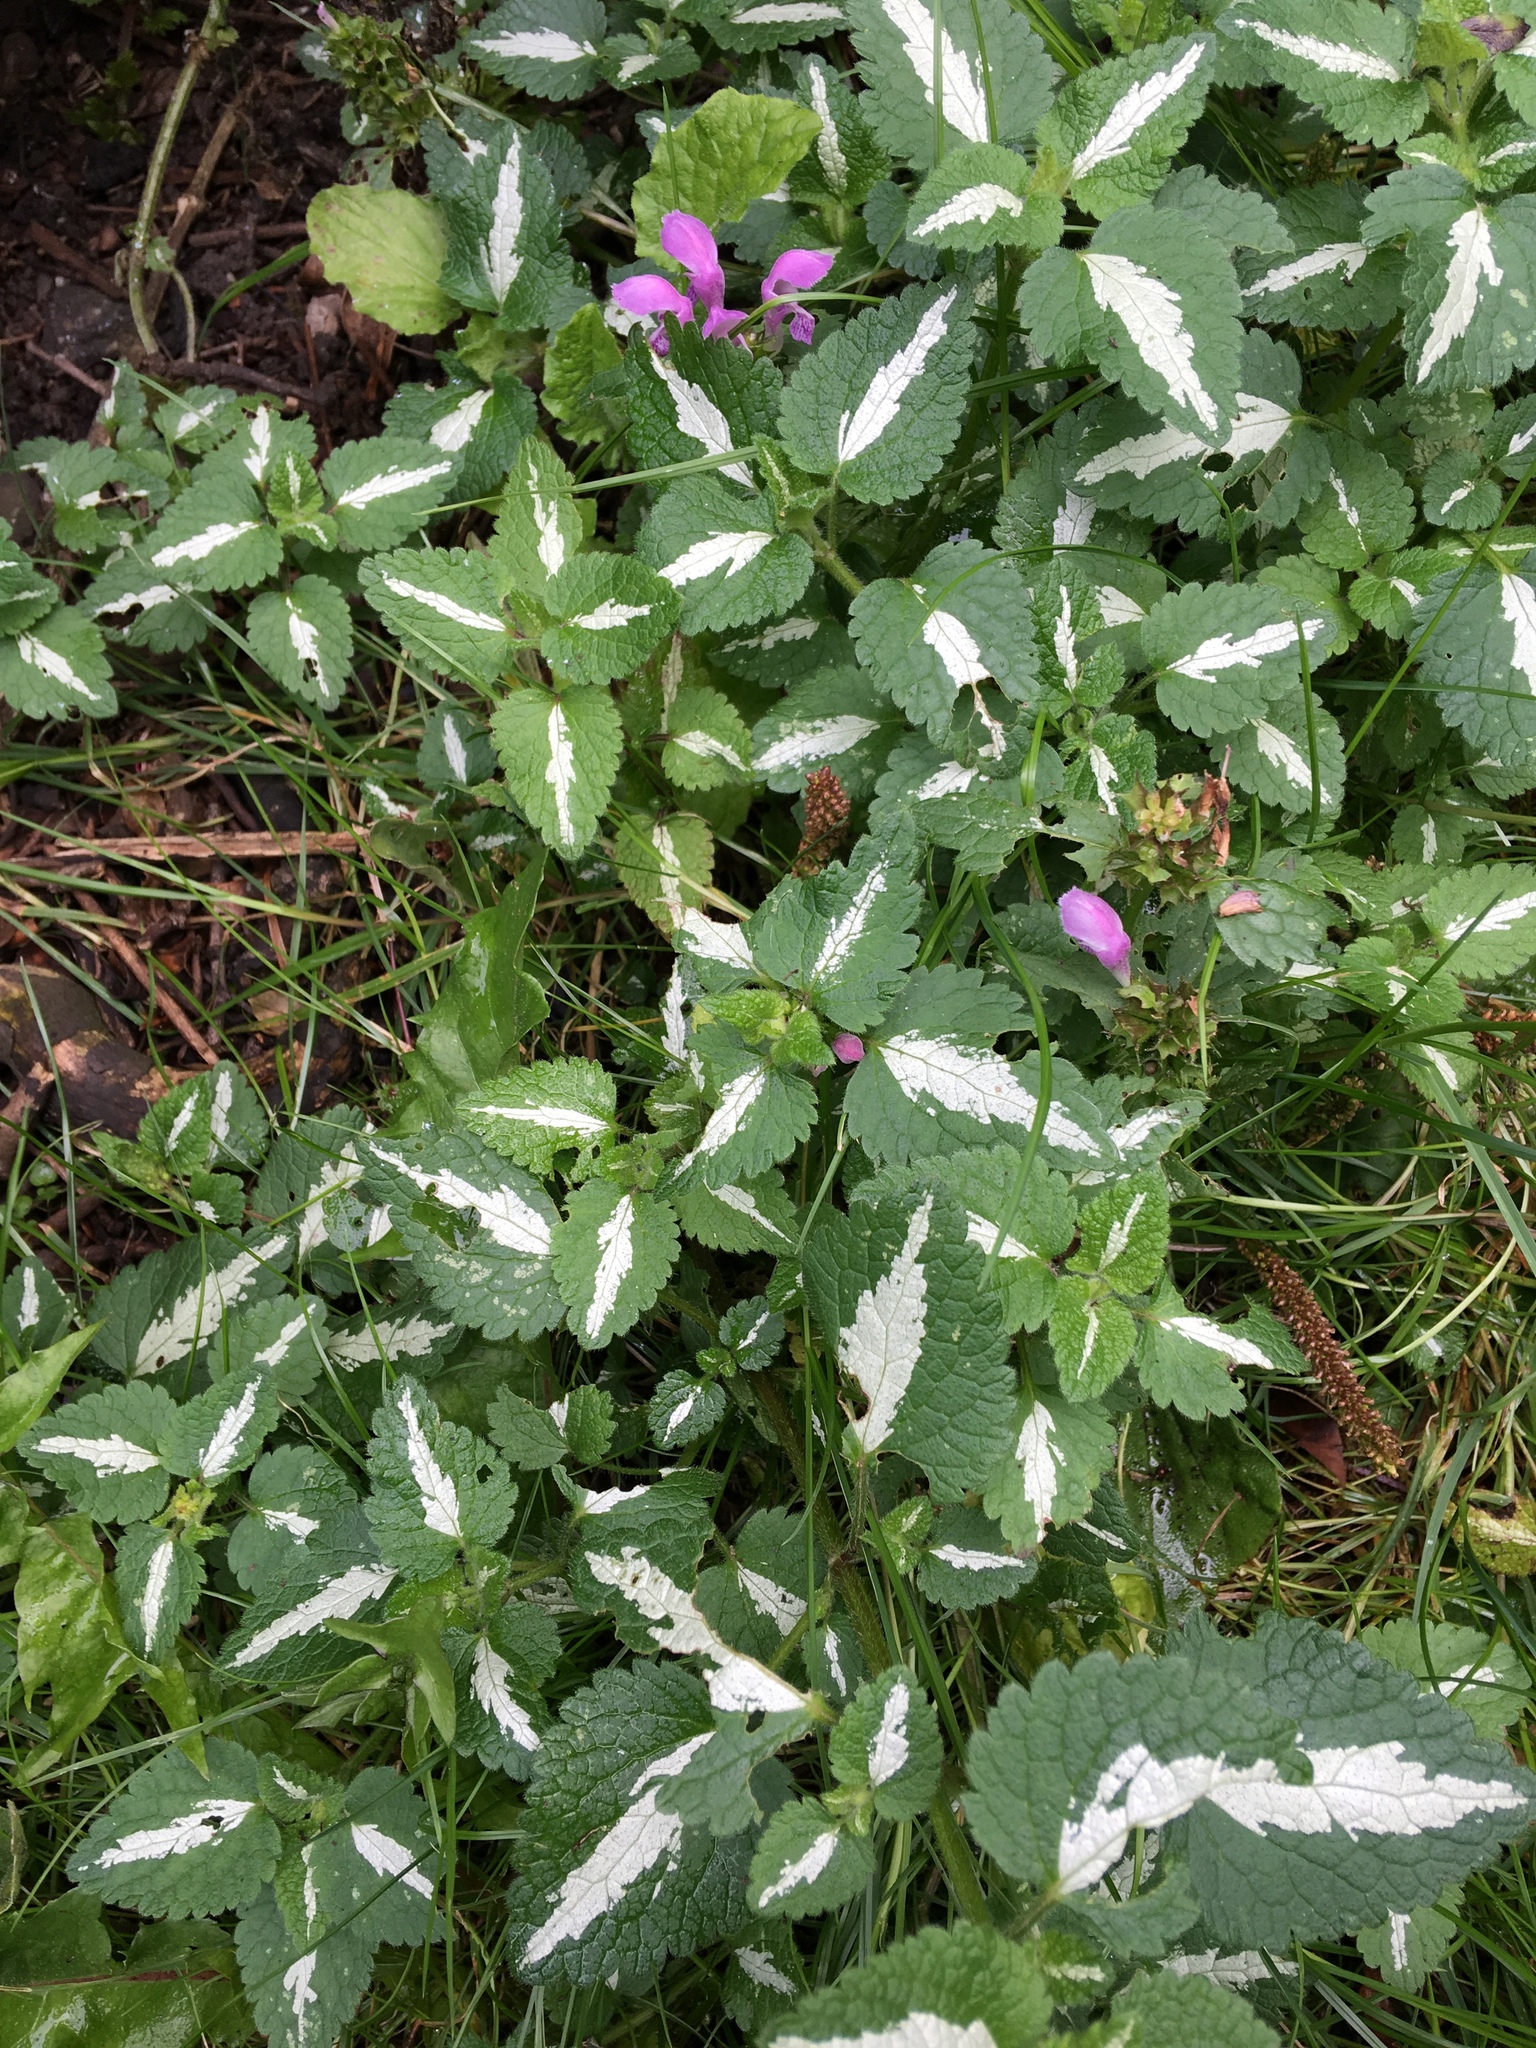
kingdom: Plantae
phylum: Tracheophyta
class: Magnoliopsida
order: Lamiales
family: Lamiaceae
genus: Lamium
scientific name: Lamium maculatum
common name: Spotted dead-nettle
